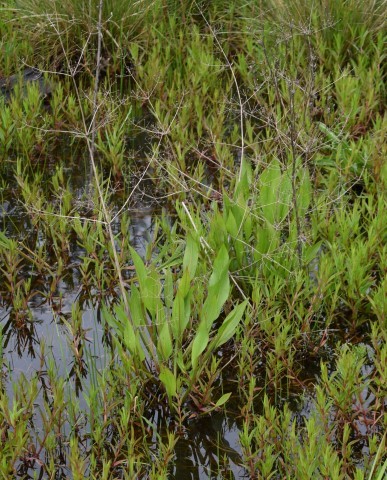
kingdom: Plantae
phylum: Tracheophyta
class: Liliopsida
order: Alismatales
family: Alismataceae
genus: Alisma
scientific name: Alisma lanceolatum
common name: Narrow-leaved water-plantain
